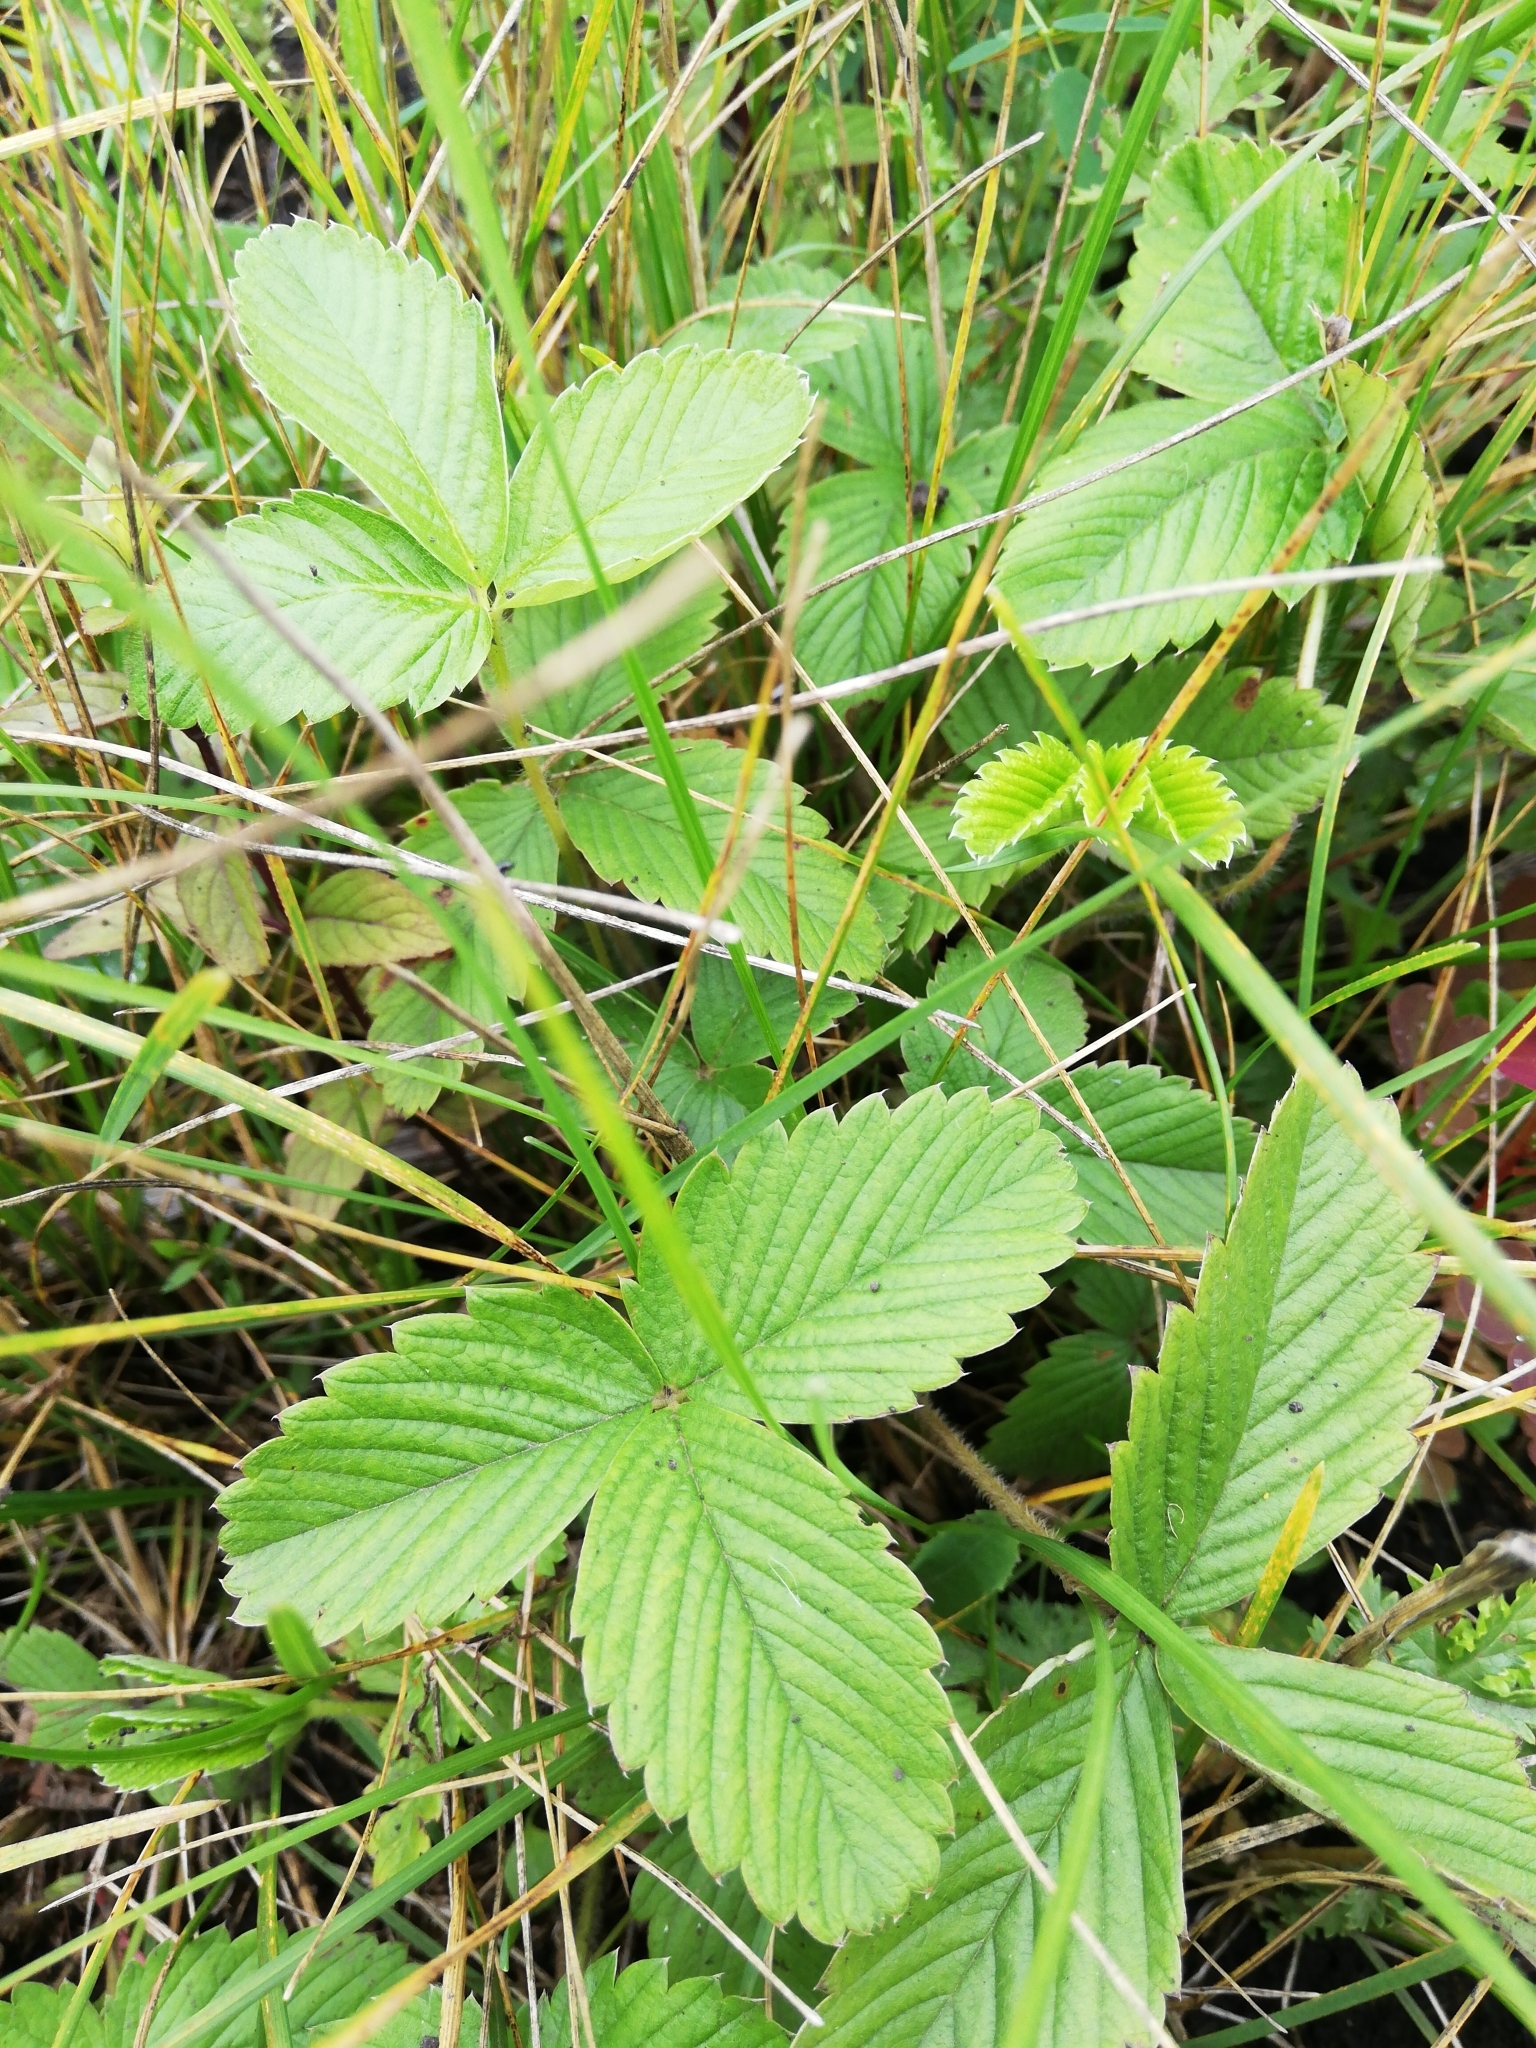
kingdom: Plantae
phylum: Tracheophyta
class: Magnoliopsida
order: Rosales
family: Rosaceae
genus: Fragaria
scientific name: Fragaria viridis
